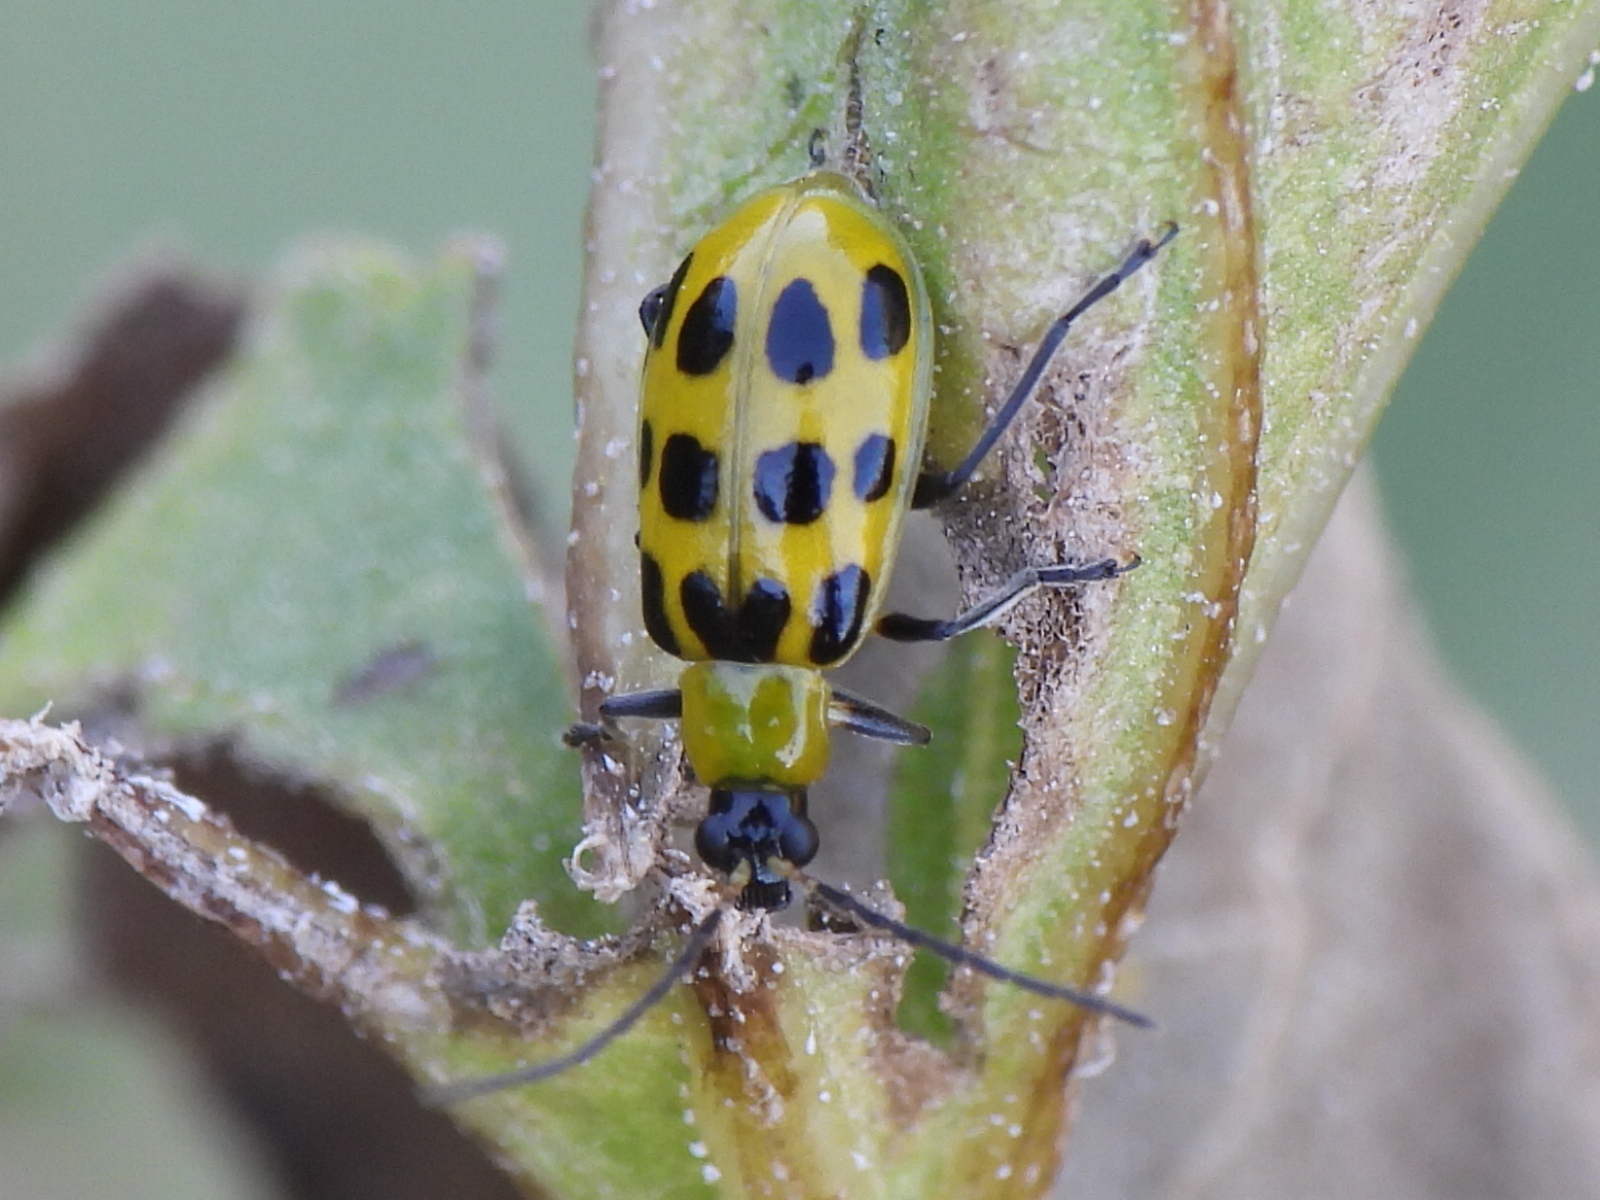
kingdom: Animalia
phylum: Arthropoda
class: Insecta
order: Coleoptera
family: Chrysomelidae
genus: Diabrotica
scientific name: Diabrotica undecimpunctata
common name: Spotted cucumber beetle
